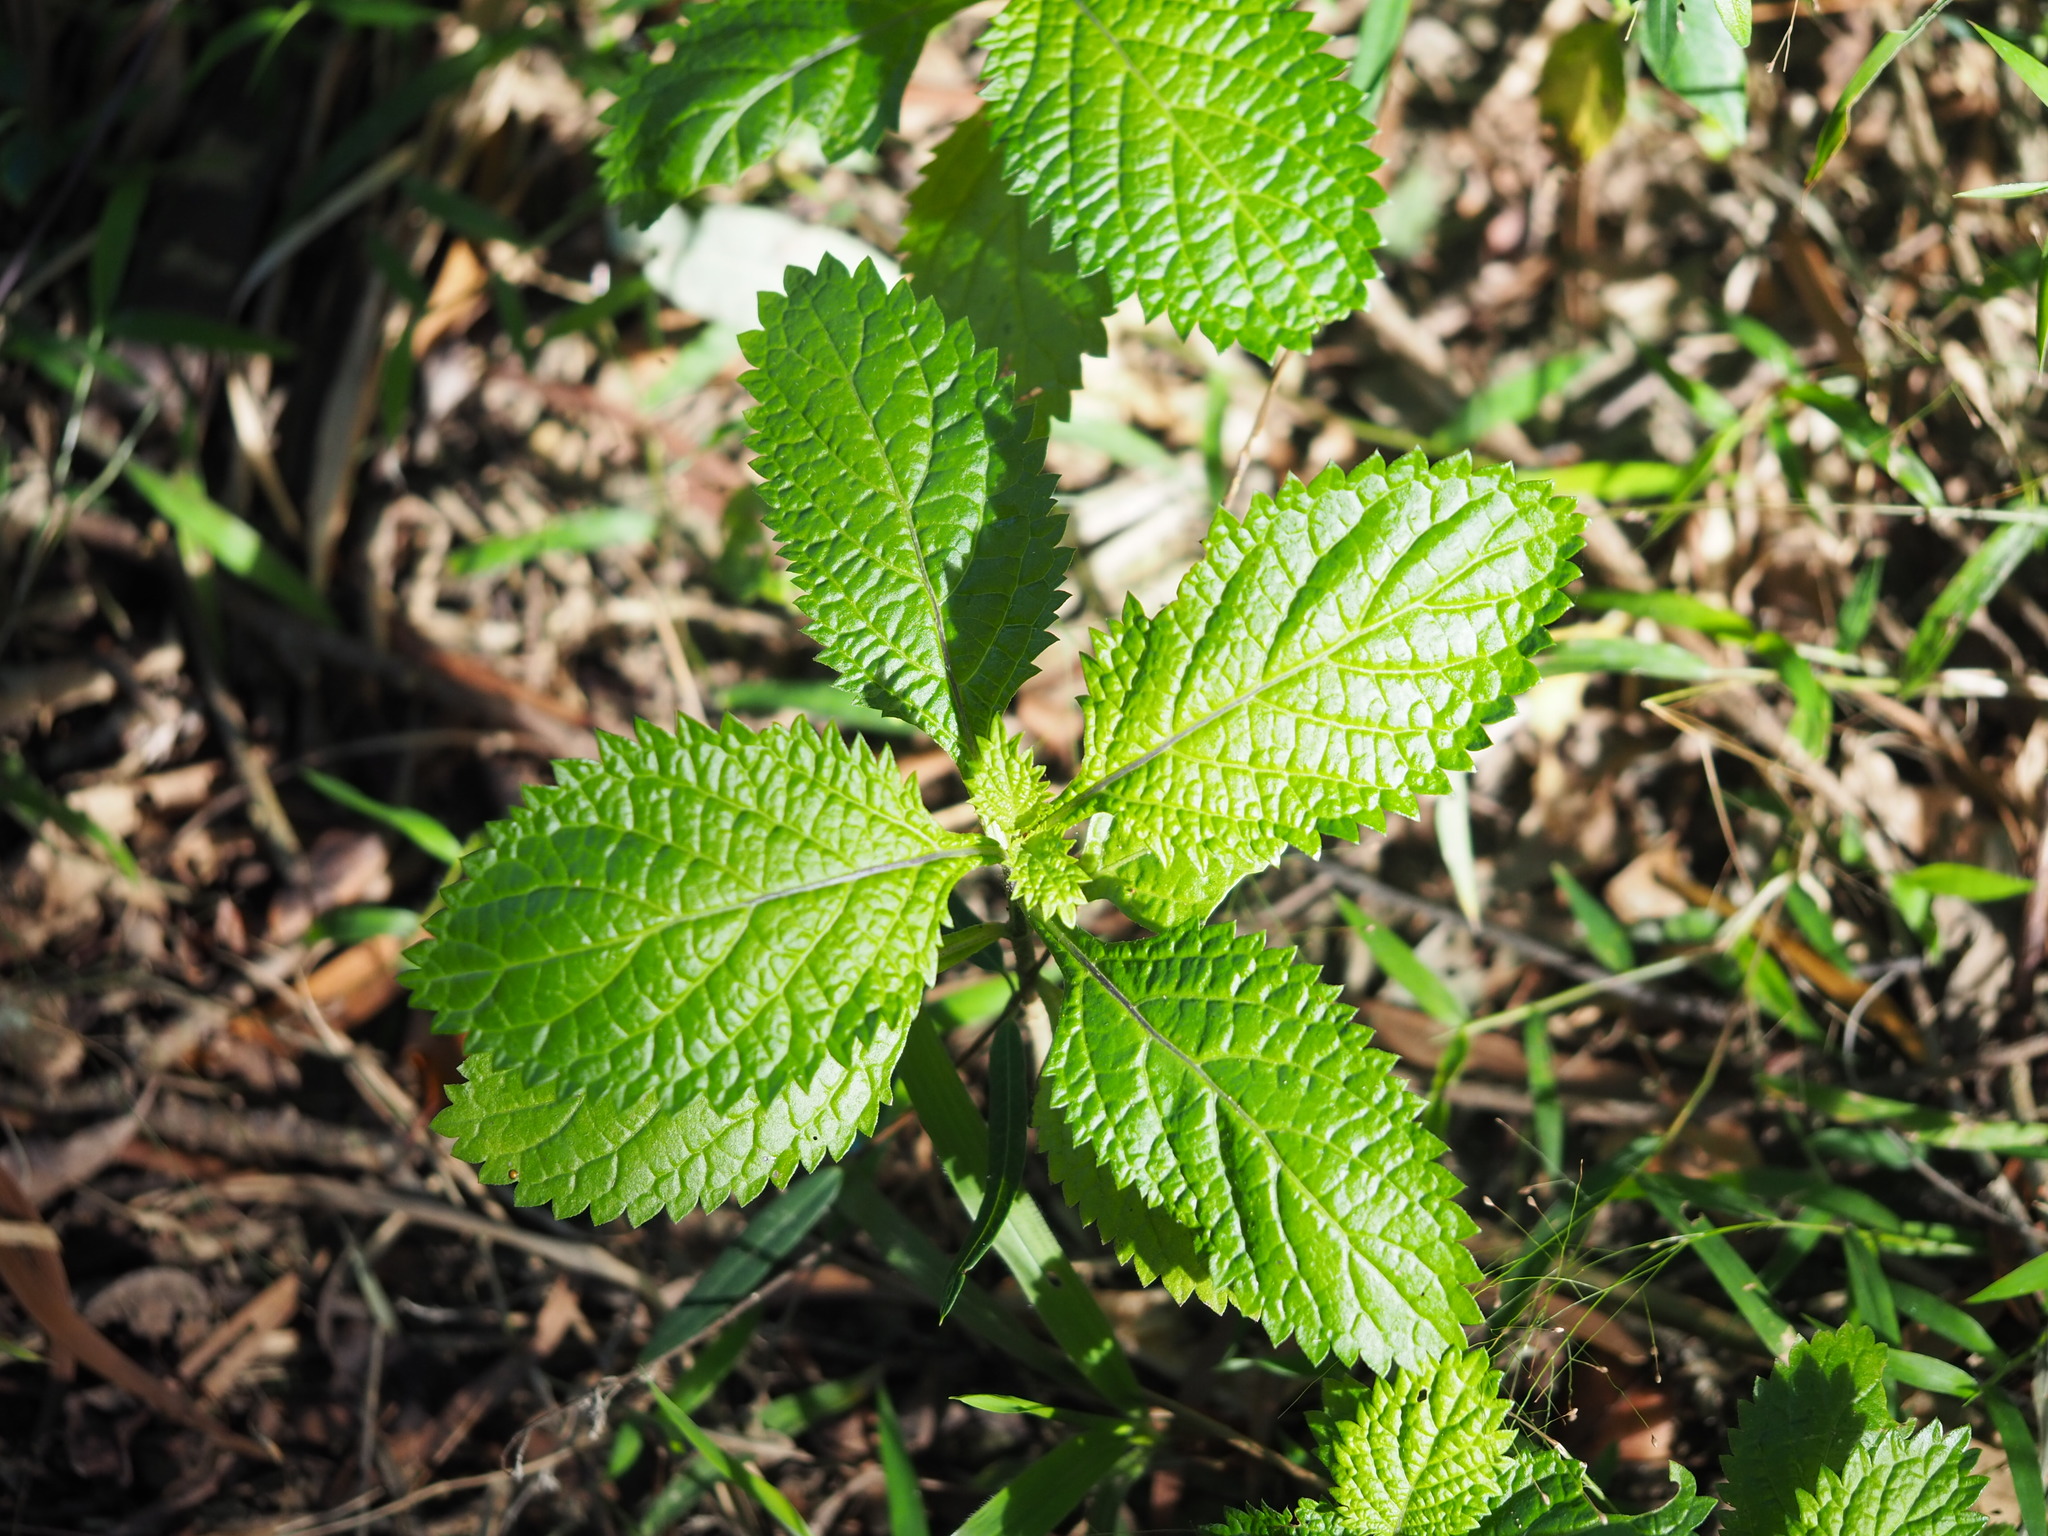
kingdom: Plantae
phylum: Tracheophyta
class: Magnoliopsida
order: Lamiales
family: Verbenaceae
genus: Stachytarpheta
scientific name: Stachytarpheta urticifolia
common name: Nettleleaf velvetberry
